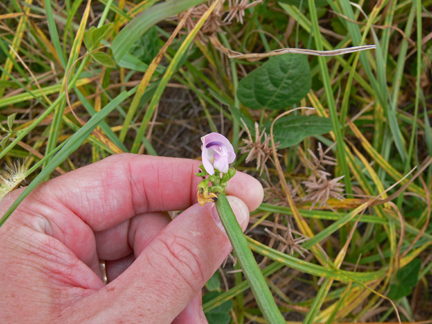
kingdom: Plantae
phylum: Tracheophyta
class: Magnoliopsida
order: Fabales
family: Fabaceae
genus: Strophostyles
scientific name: Strophostyles helvola
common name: Trailing wild bean
